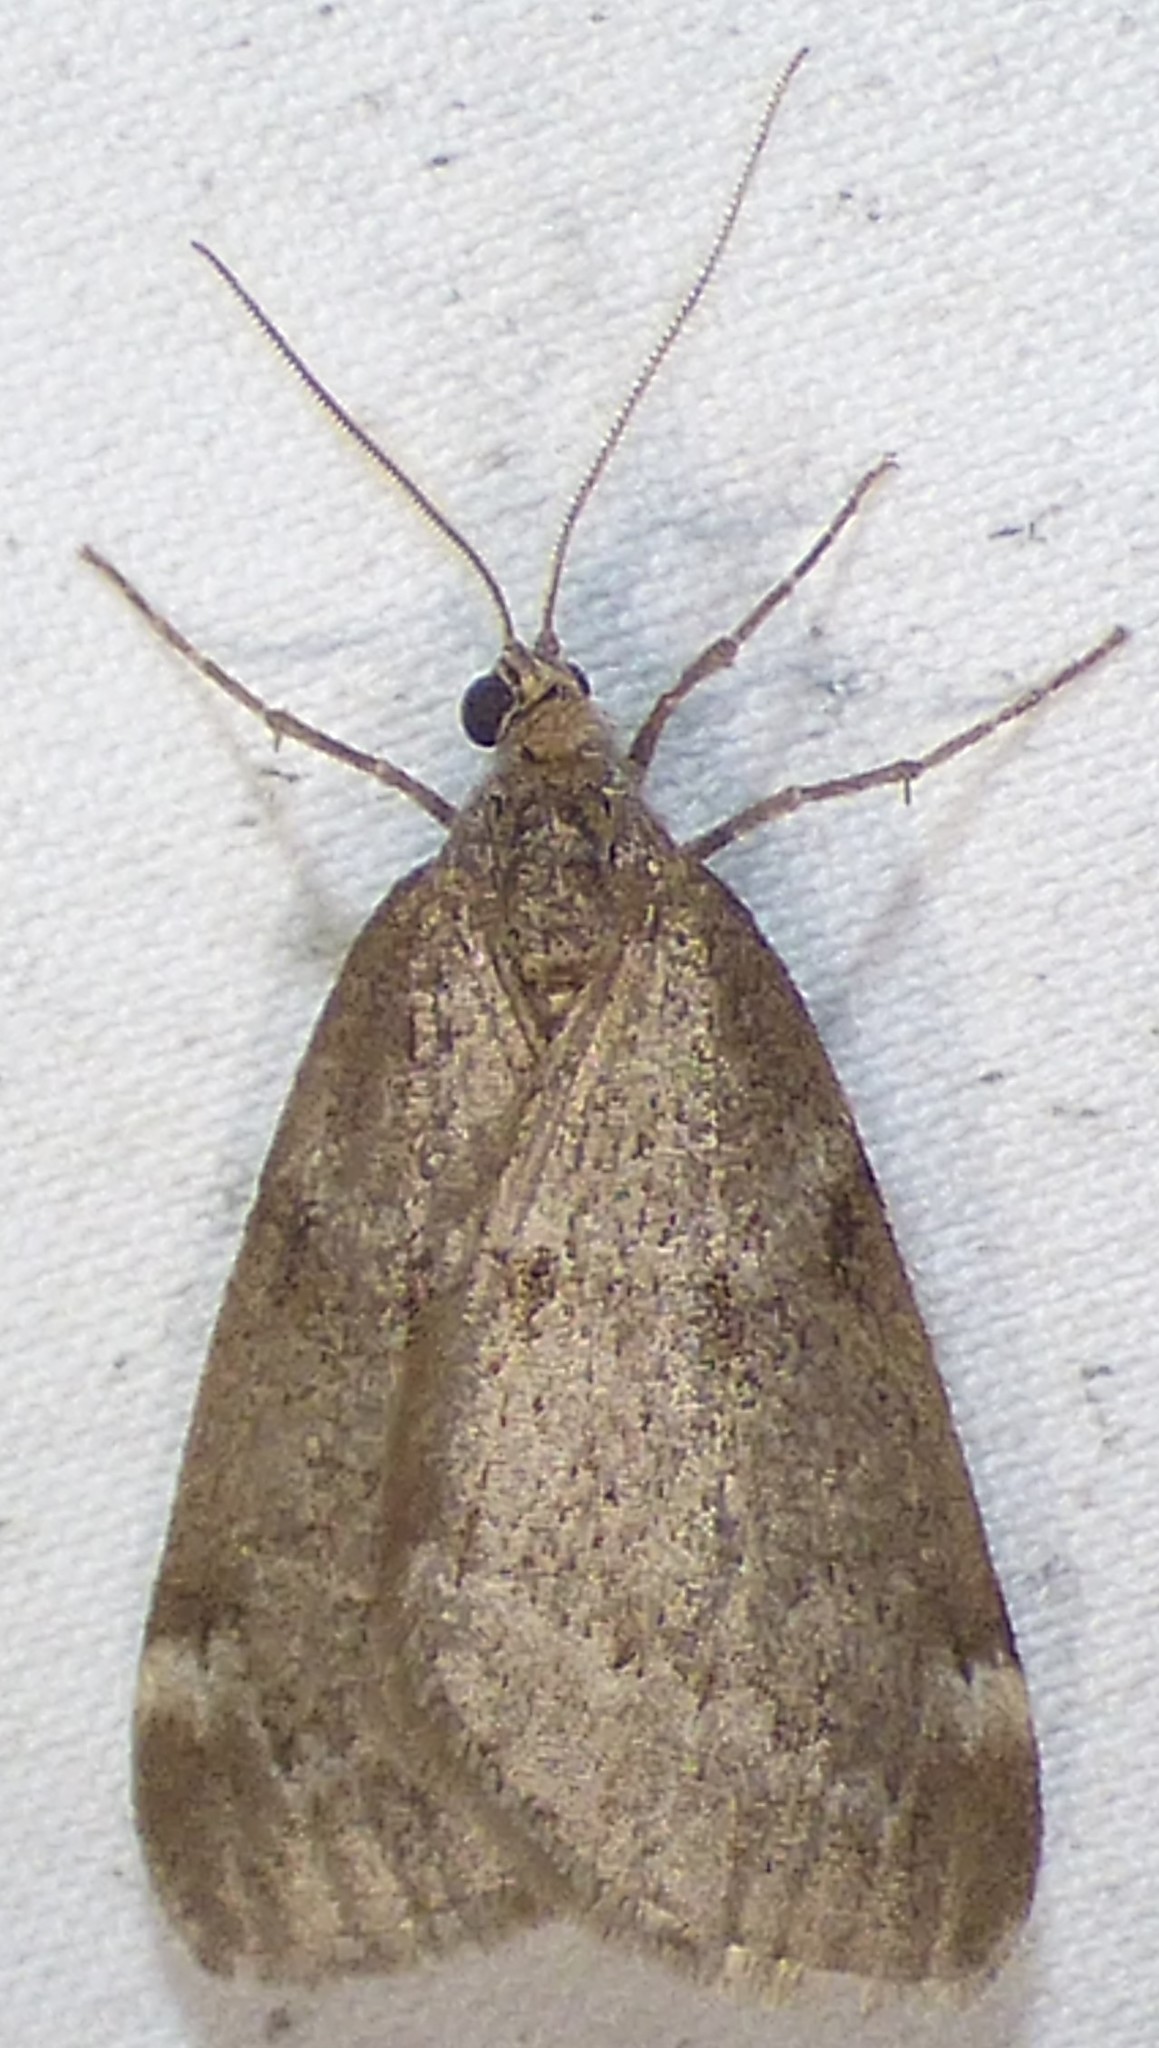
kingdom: Animalia
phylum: Arthropoda
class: Insecta
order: Lepidoptera
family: Geometridae
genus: Alsophila
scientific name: Alsophila pometaria
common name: Fall cankerworm
